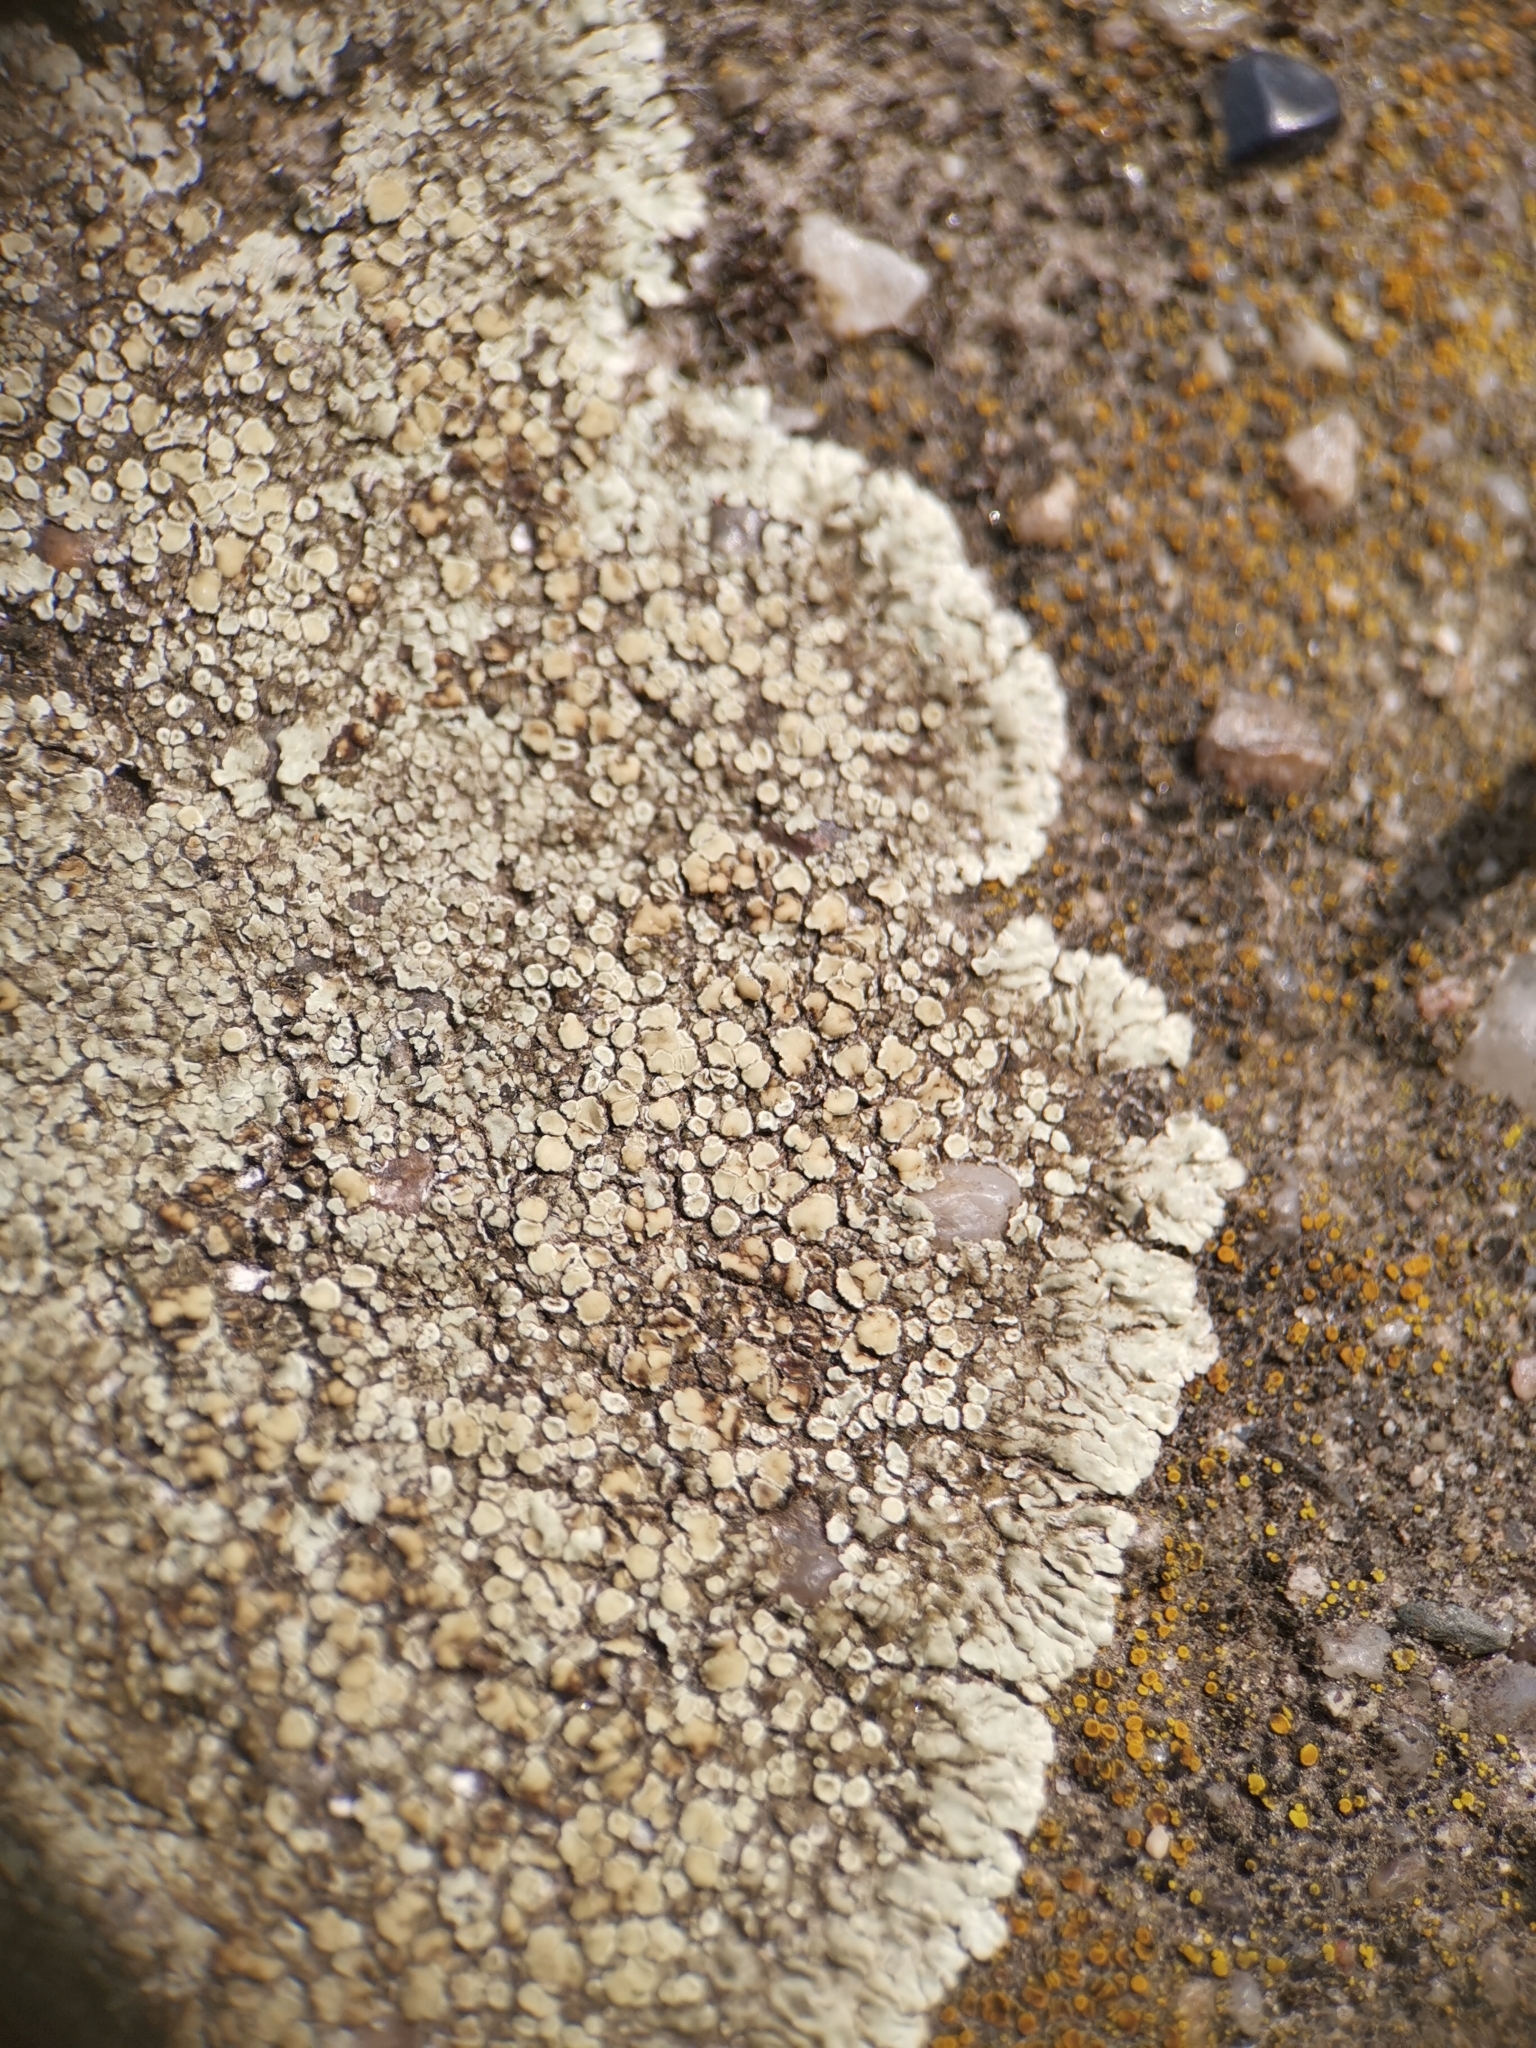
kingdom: Fungi
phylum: Ascomycota
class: Lecanoromycetes
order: Lecanorales
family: Lecanoraceae
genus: Protoparmeliopsis
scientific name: Protoparmeliopsis muralis
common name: Stonewall rim lichen
